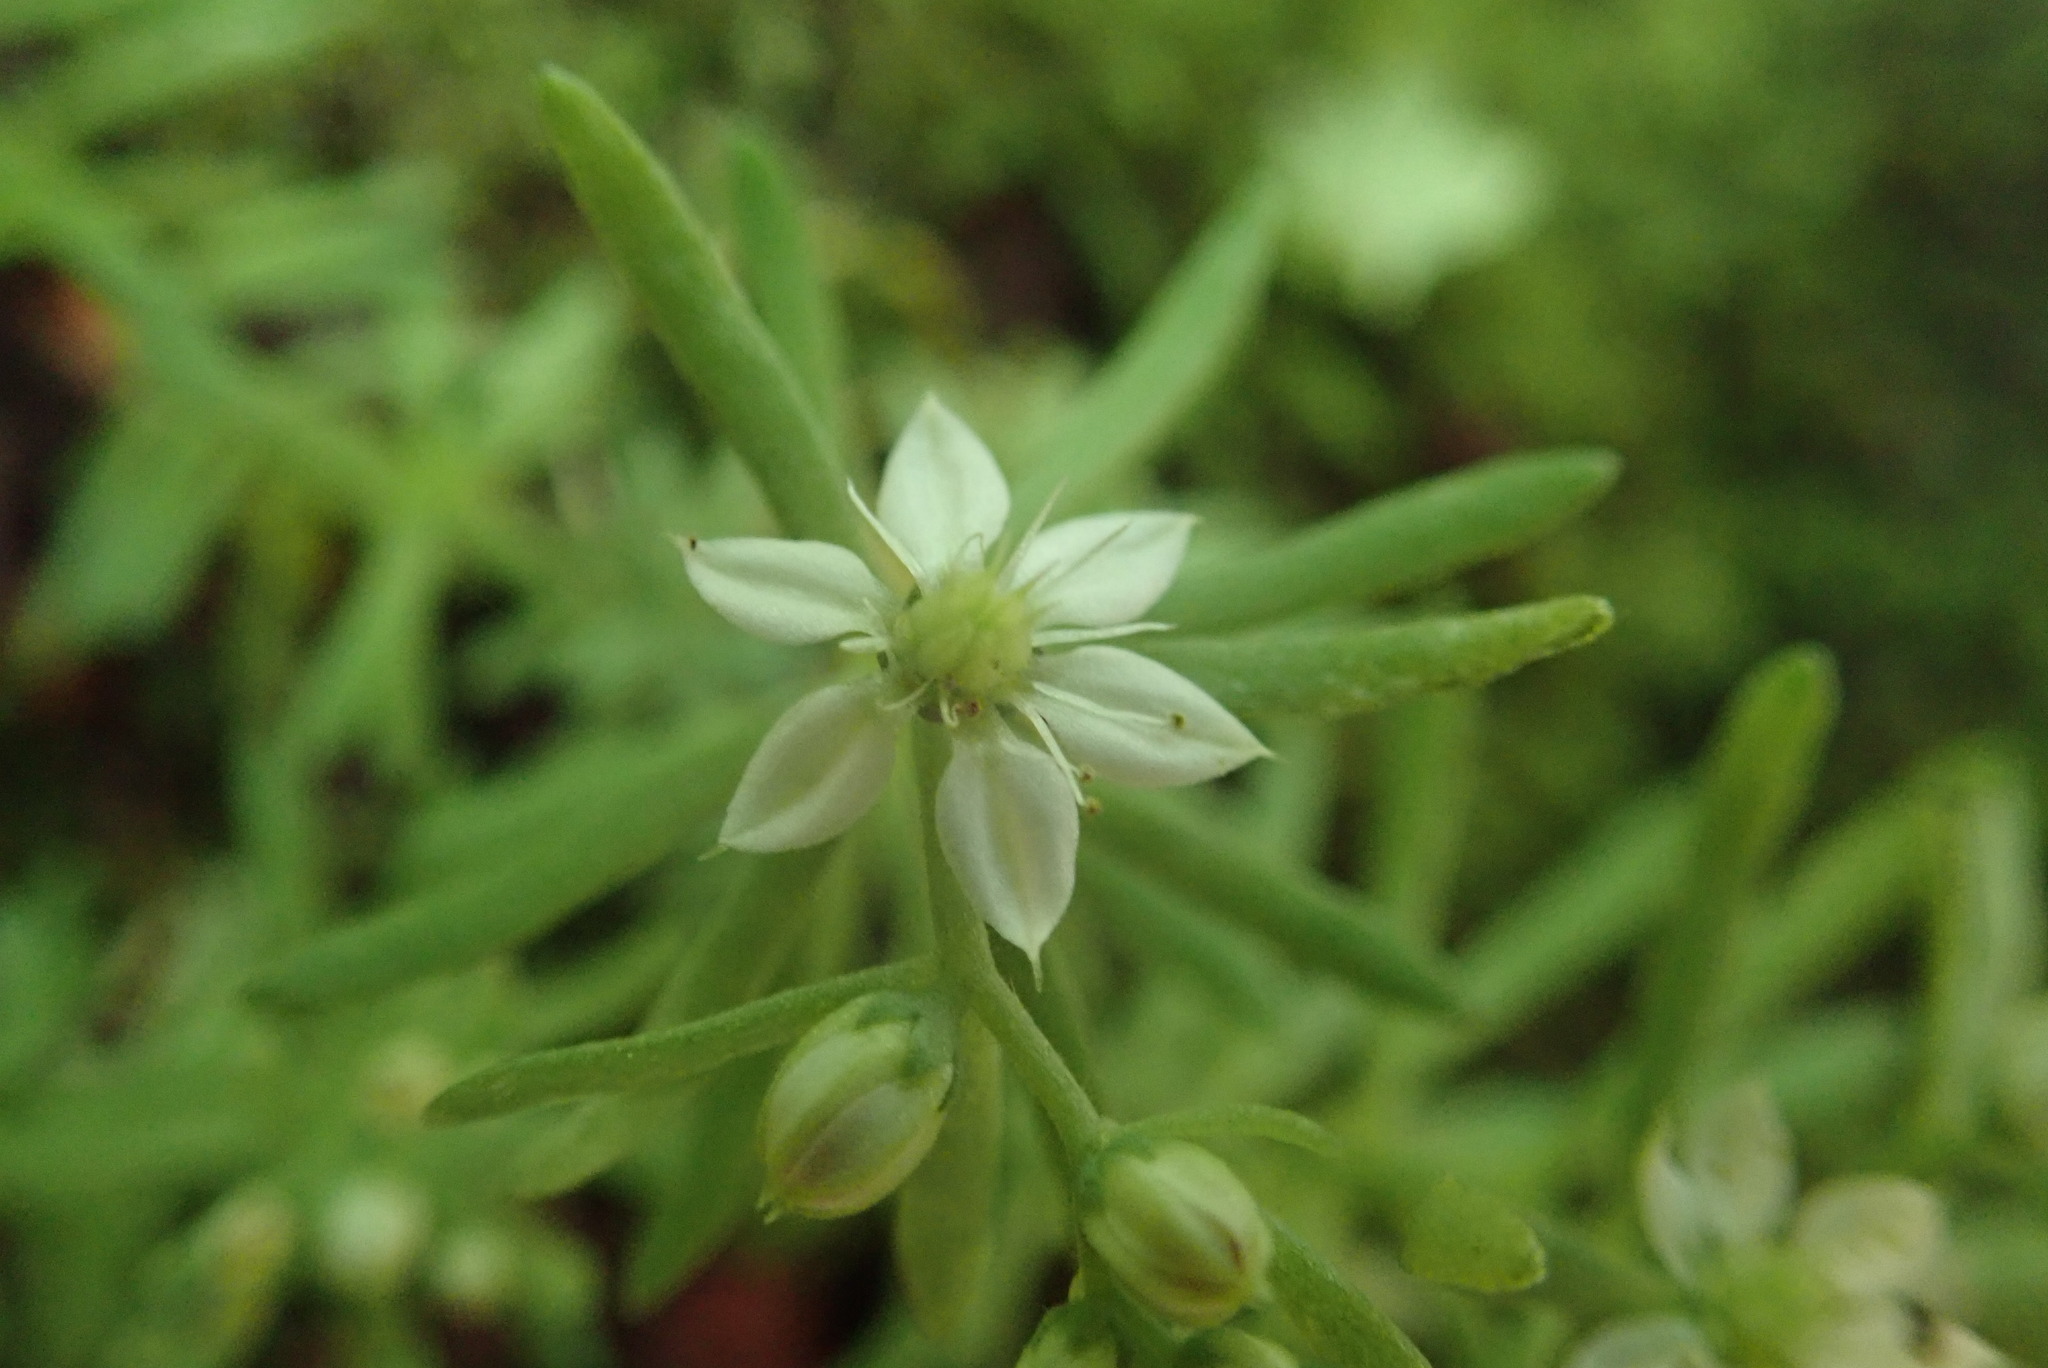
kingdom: Plantae
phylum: Tracheophyta
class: Magnoliopsida
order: Saxifragales
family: Crassulaceae
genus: Sedum
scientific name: Sedum hispanicum
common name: Spanish stonecrop
